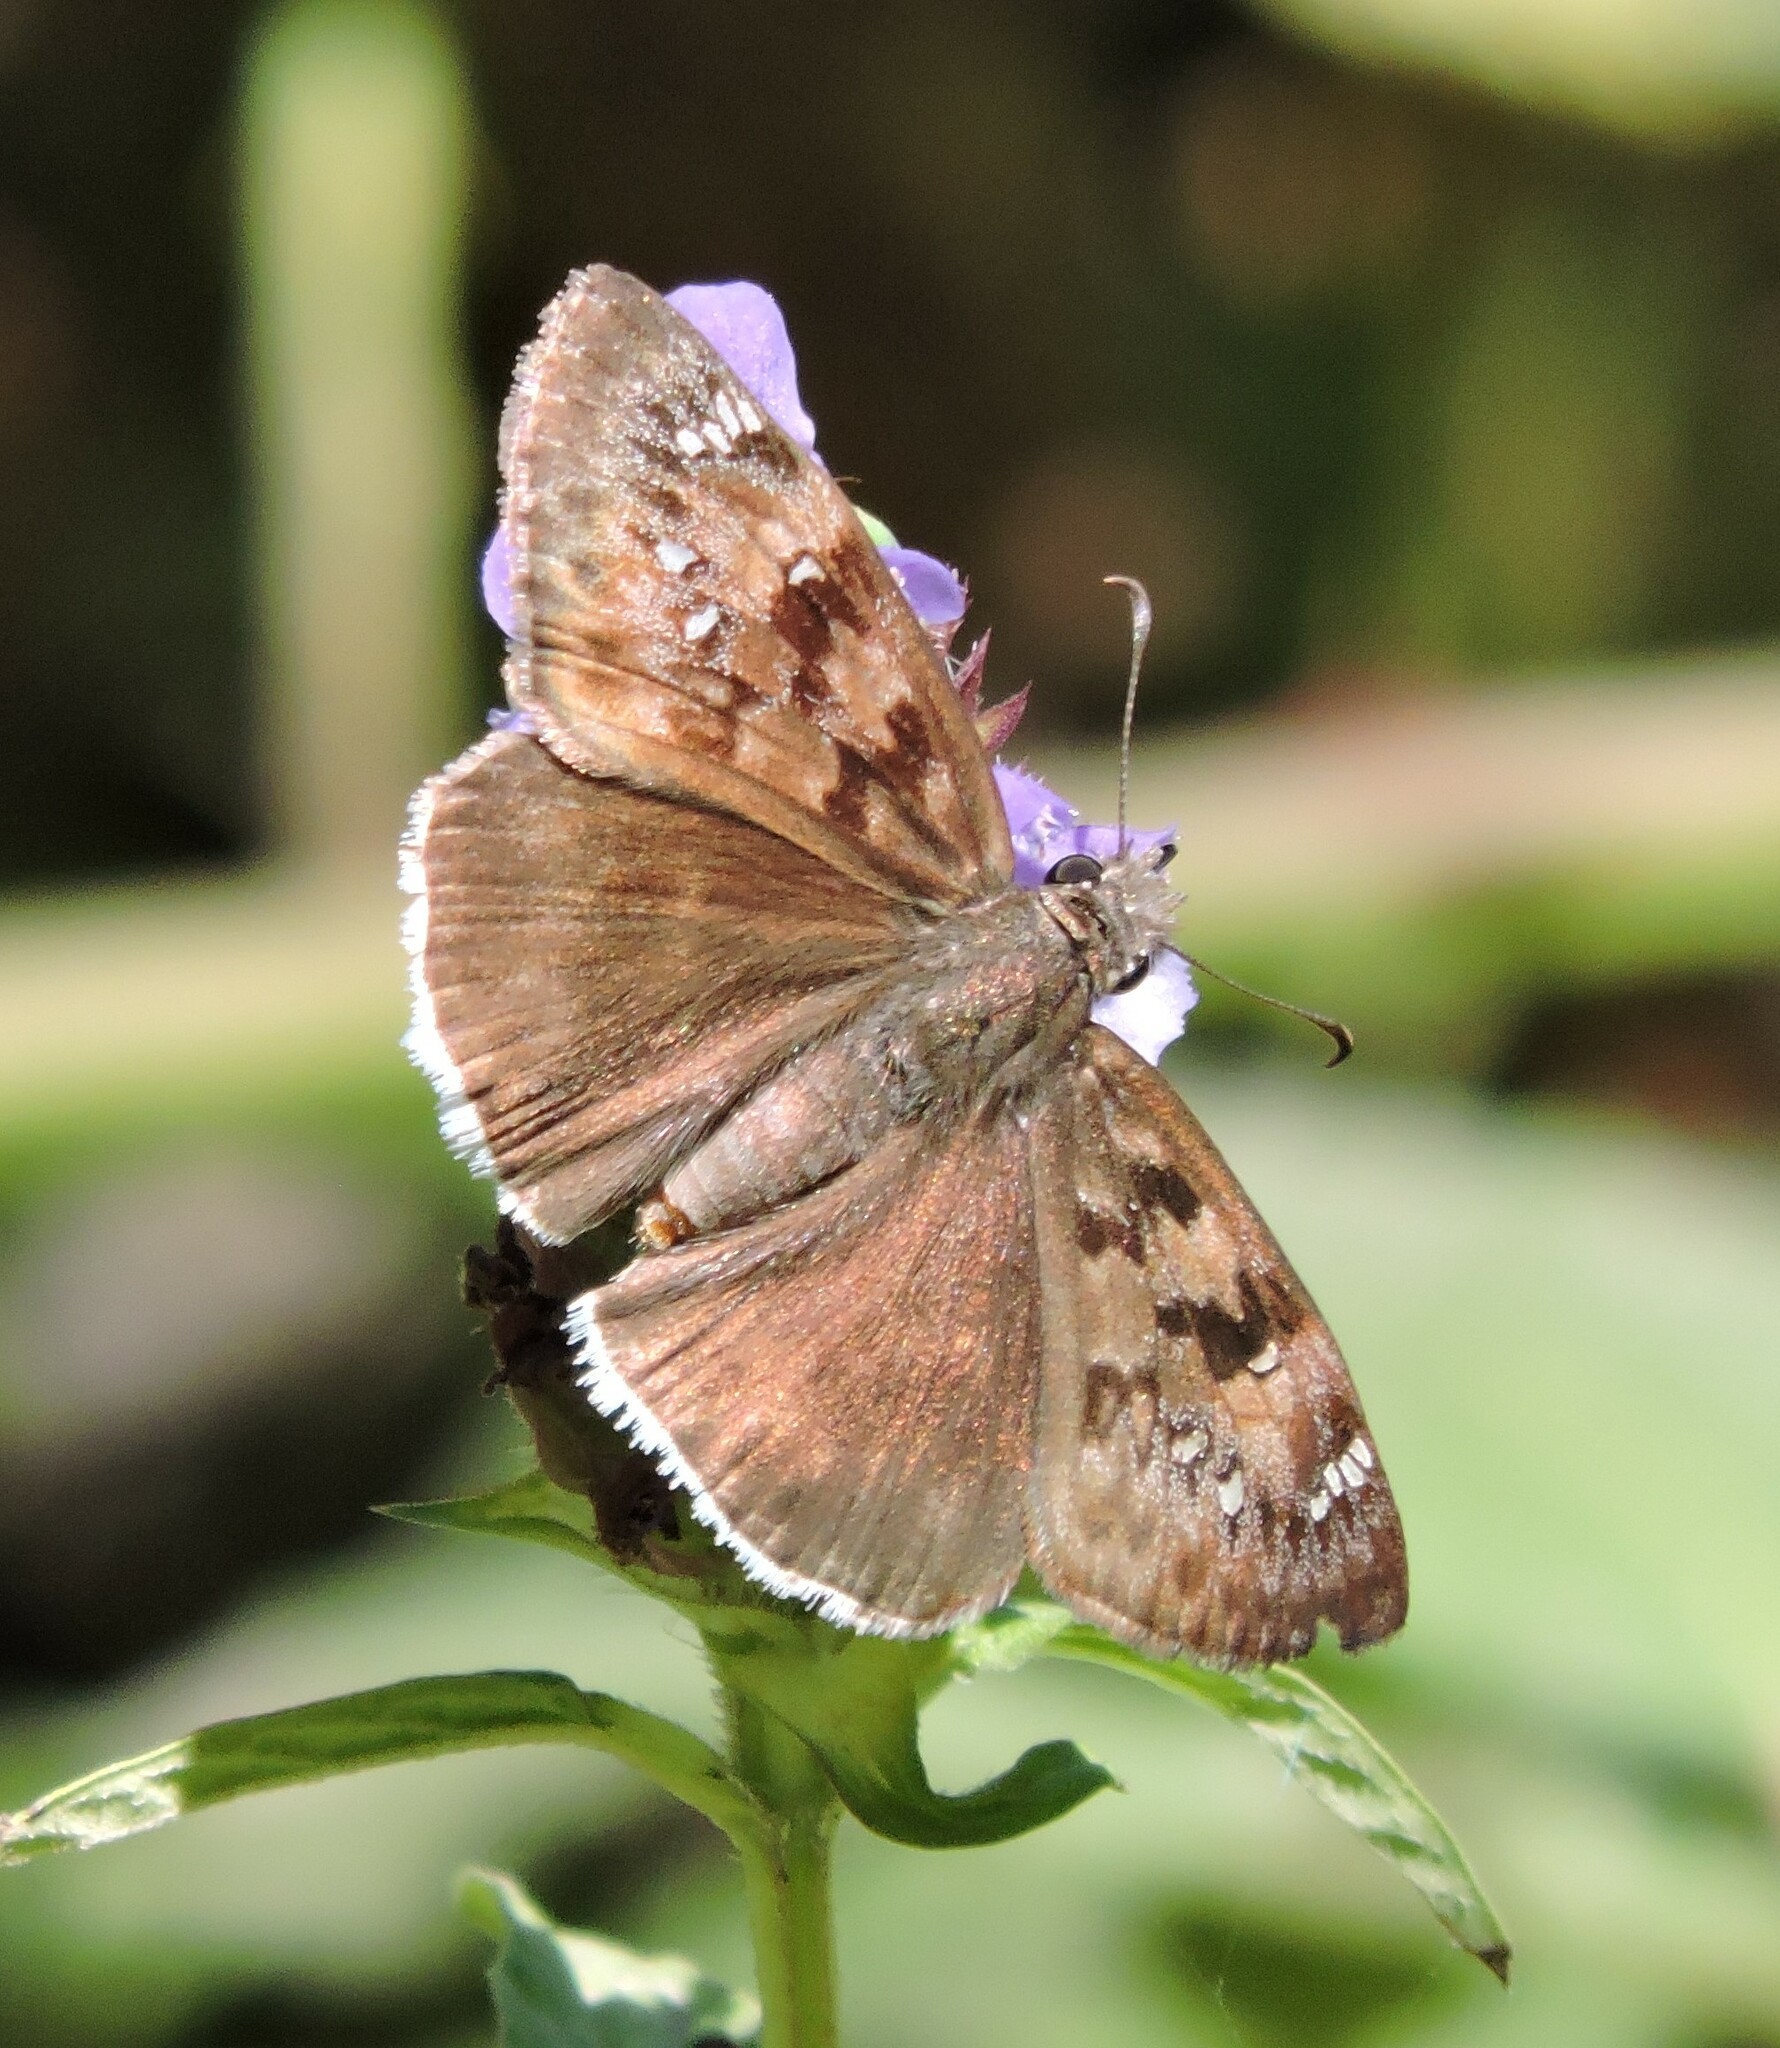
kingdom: Animalia
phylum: Arthropoda
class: Insecta
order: Lepidoptera
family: Hesperiidae
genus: Erynnis
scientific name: Erynnis tristis
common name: Mournful duskywing
